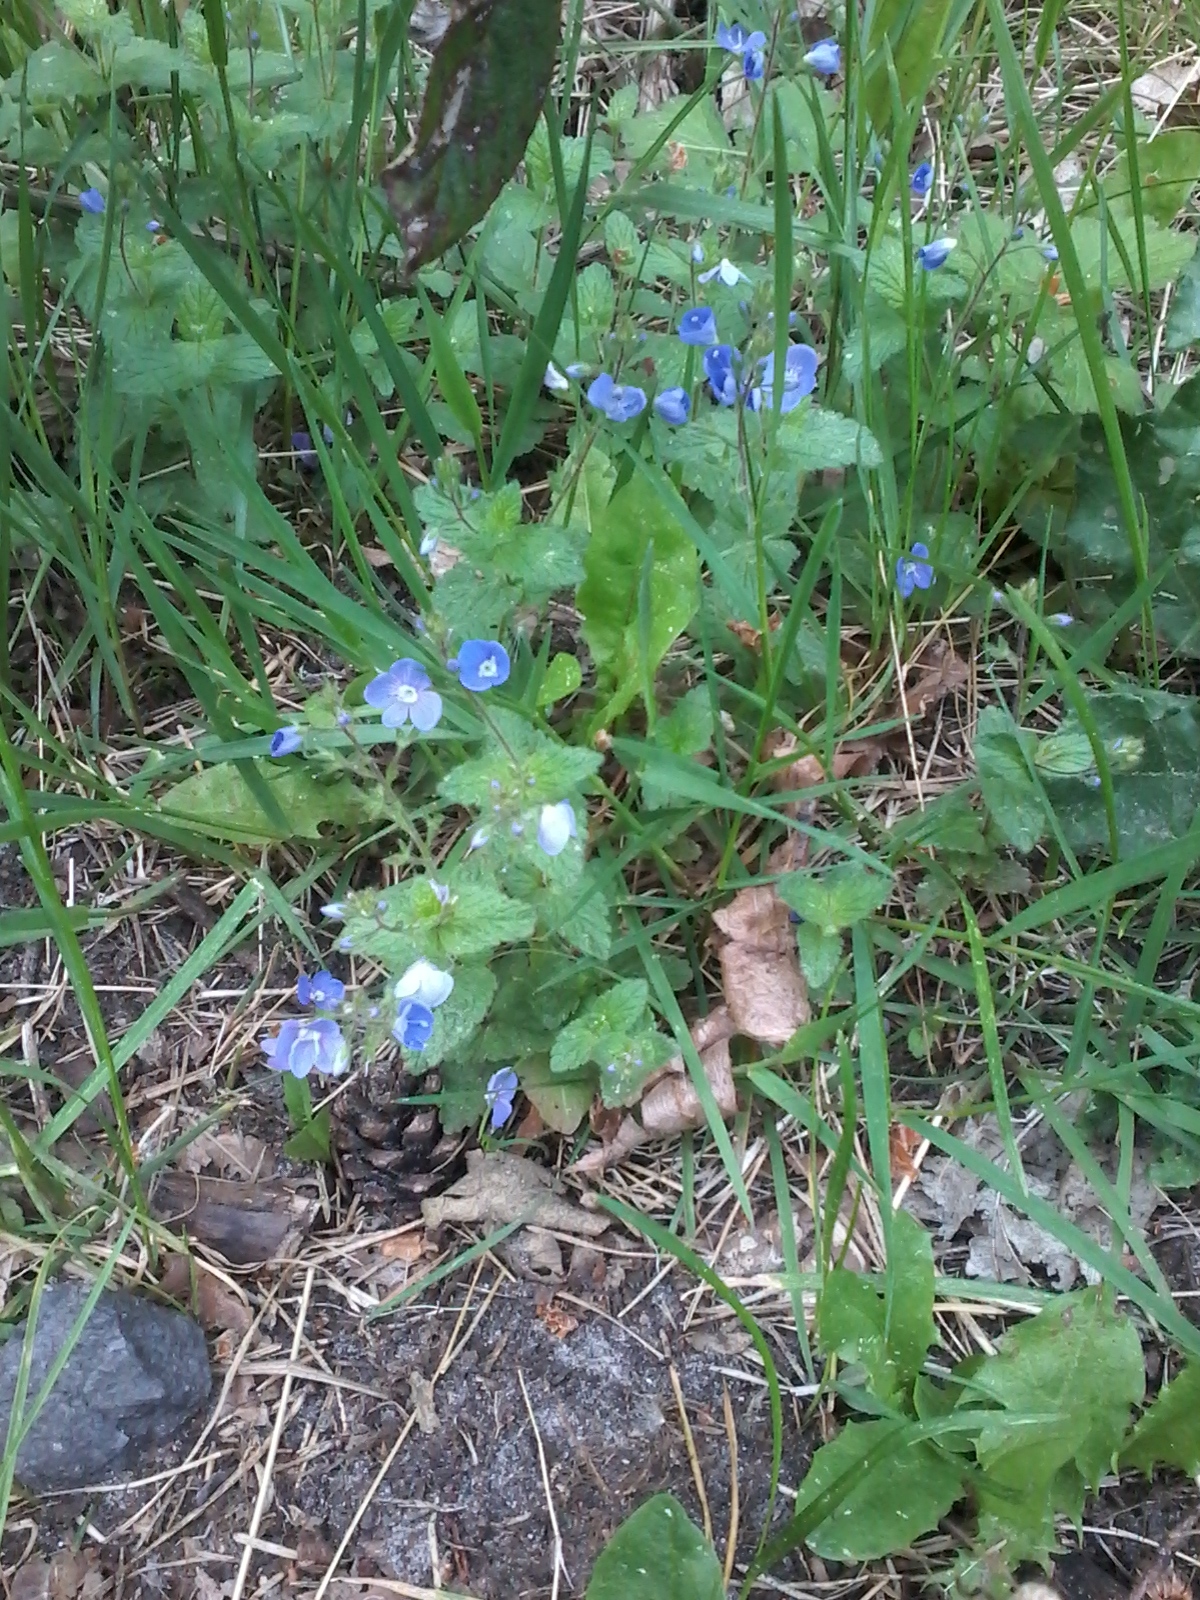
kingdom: Plantae
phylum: Tracheophyta
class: Magnoliopsida
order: Lamiales
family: Plantaginaceae
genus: Veronica
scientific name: Veronica chamaedrys
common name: Germander speedwell
